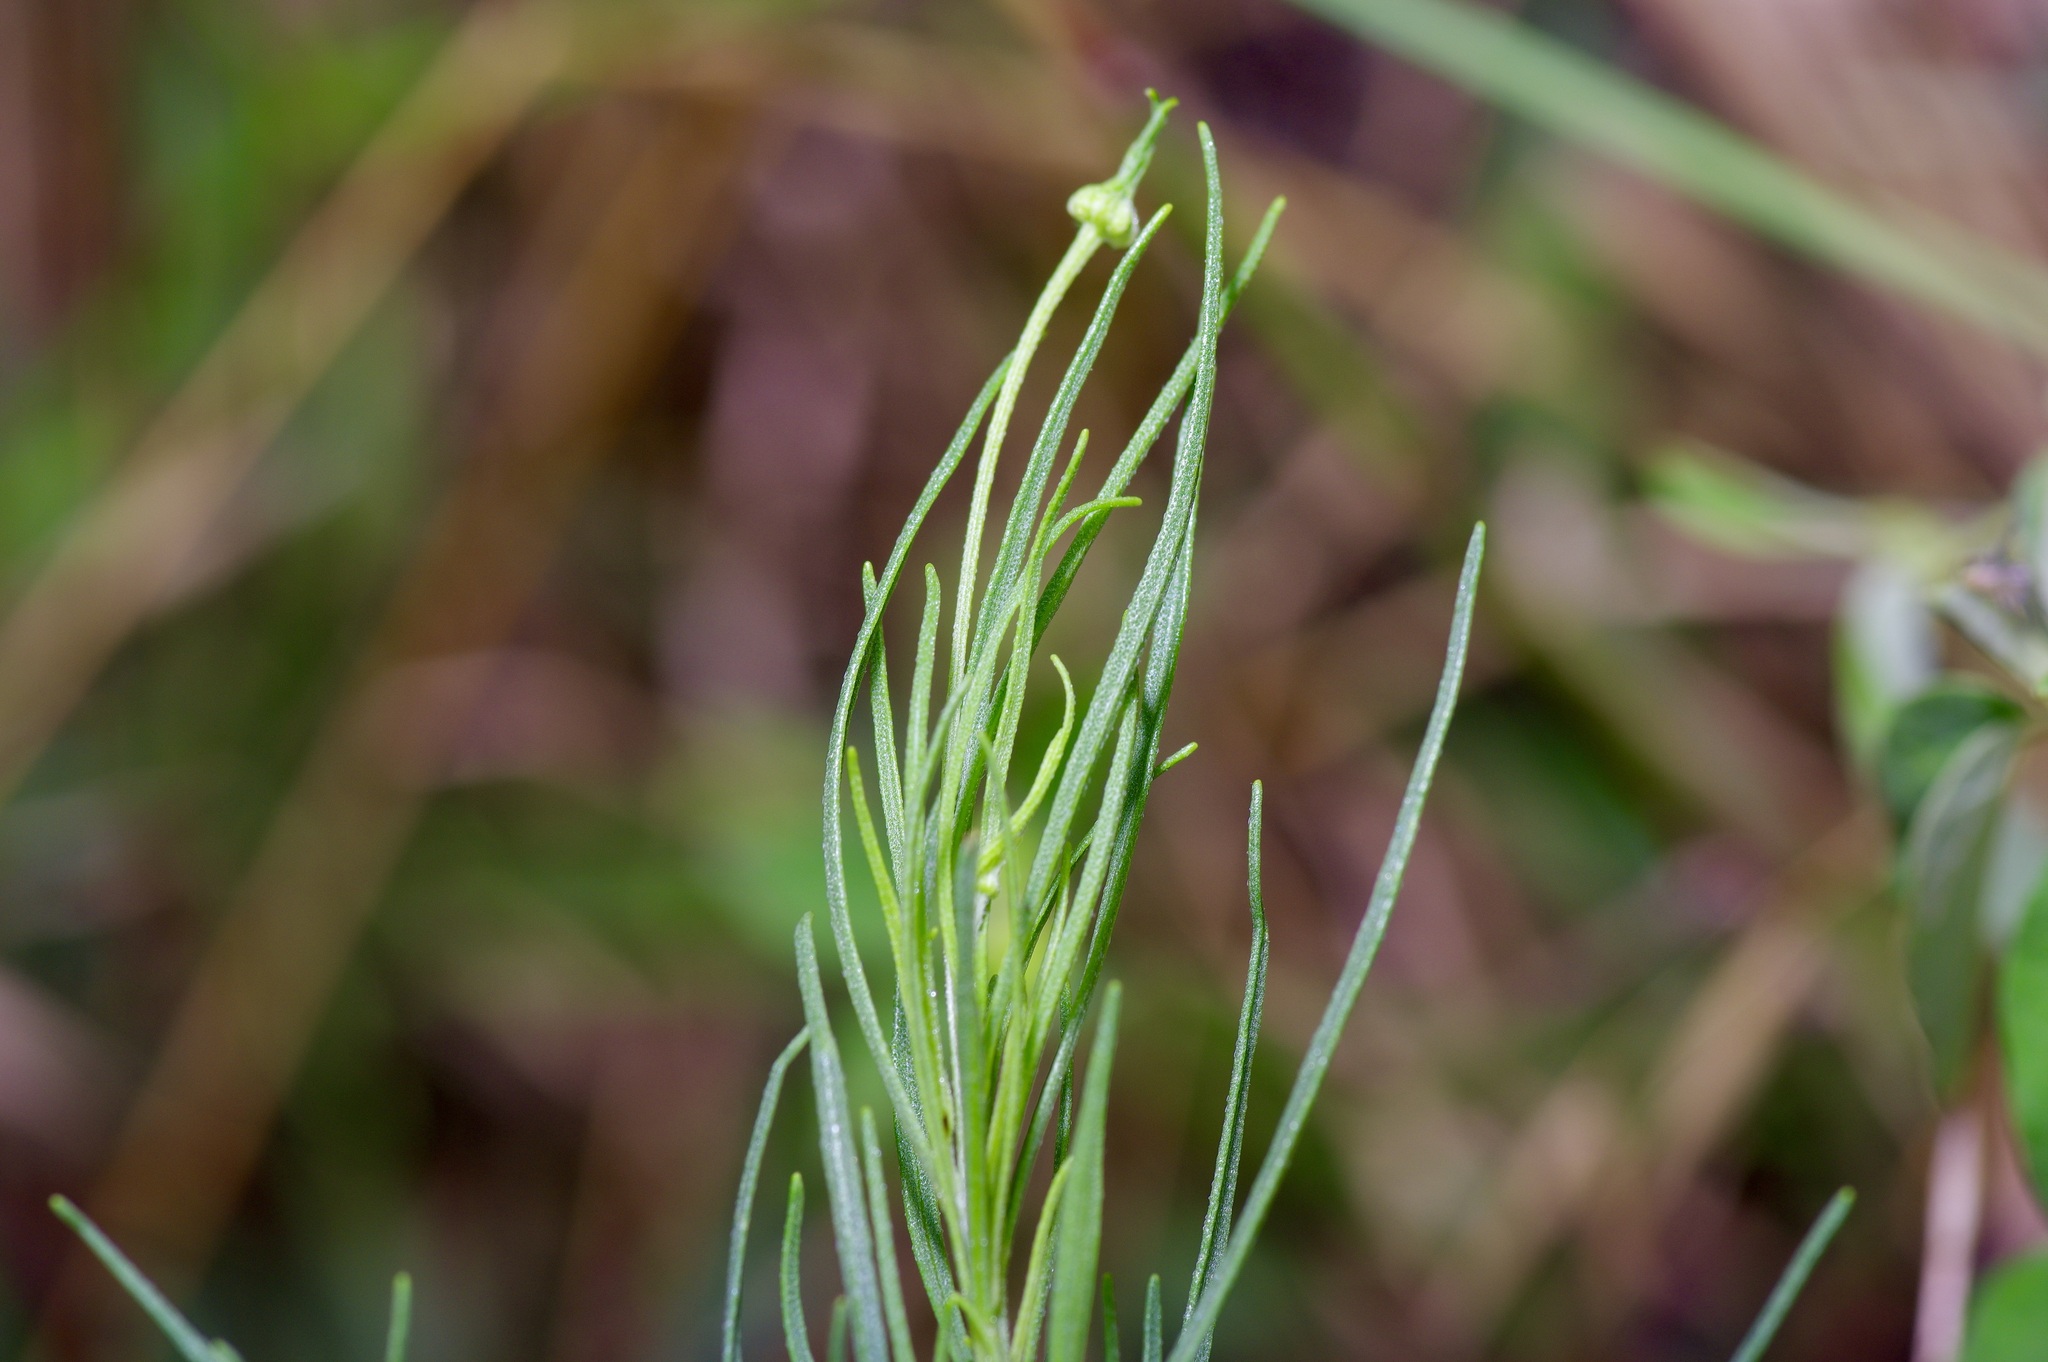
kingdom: Plantae
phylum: Tracheophyta
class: Magnoliopsida
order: Asterales
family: Asteraceae
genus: Helenium
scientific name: Helenium amarum
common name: Bitter sneezeweed
